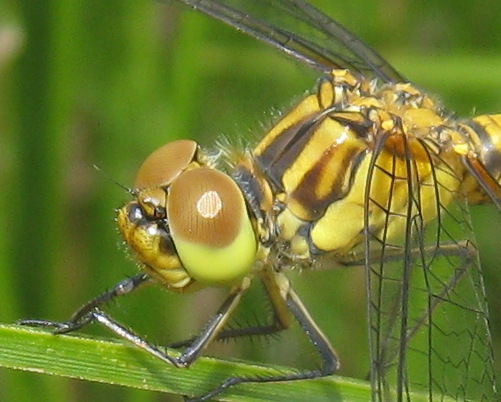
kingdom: Animalia
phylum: Arthropoda
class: Insecta
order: Odonata
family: Libellulidae
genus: Sympetrum
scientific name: Sympetrum meridionale
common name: Southern darter
